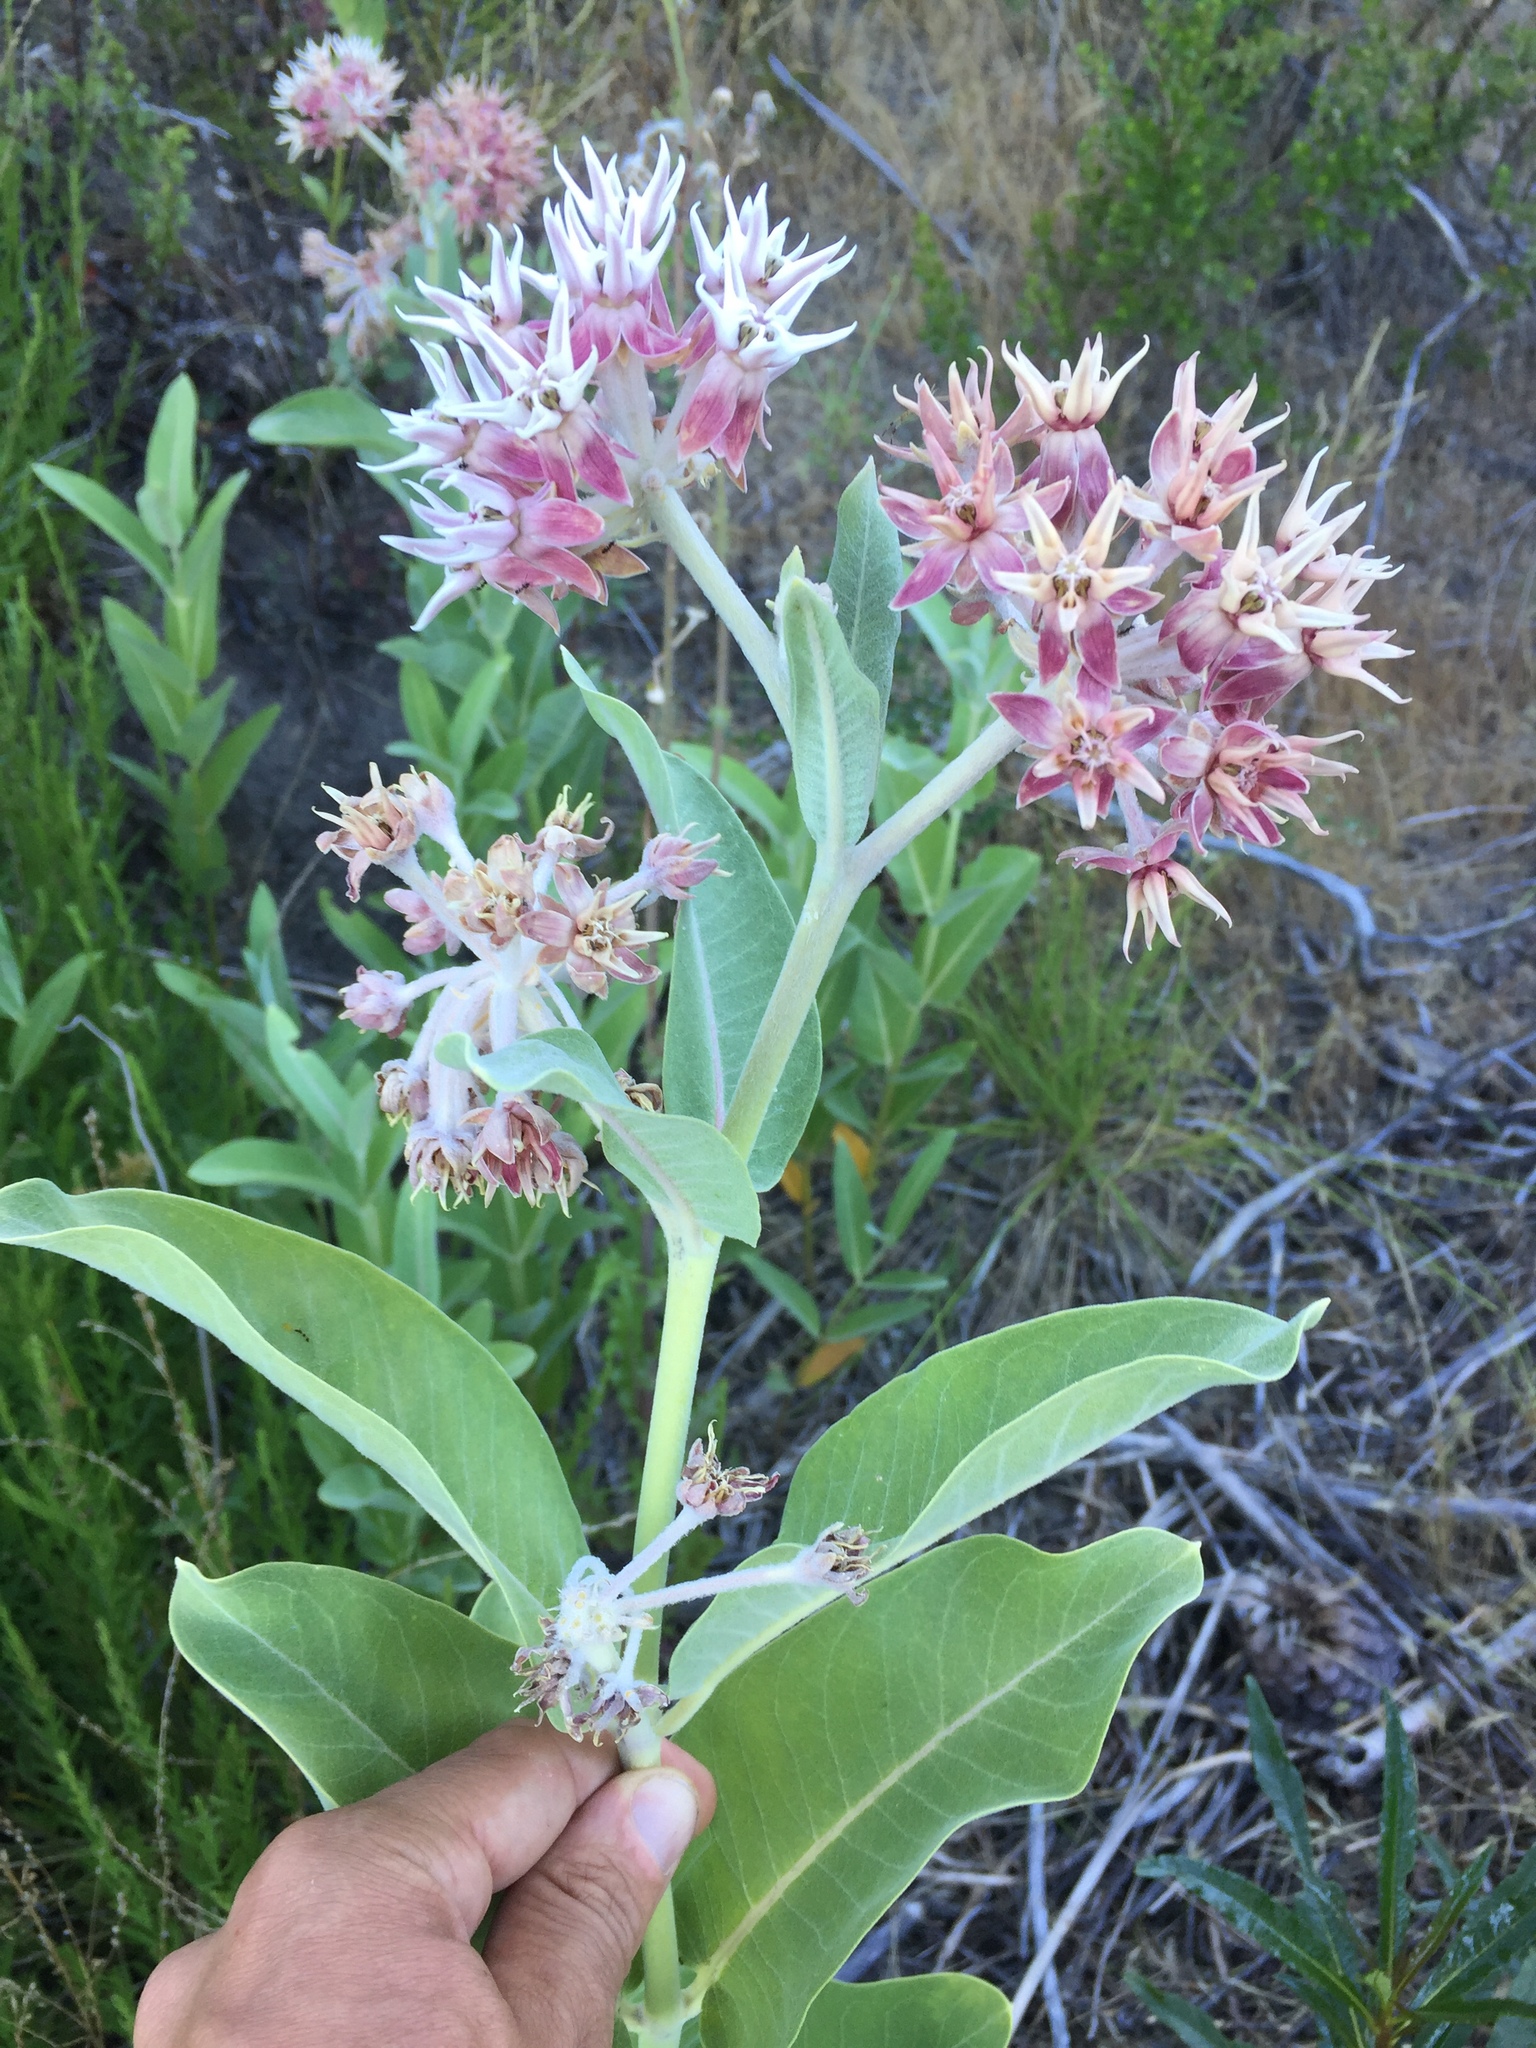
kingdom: Plantae
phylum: Tracheophyta
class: Magnoliopsida
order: Gentianales
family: Apocynaceae
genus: Asclepias
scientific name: Asclepias speciosa
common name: Showy milkweed
